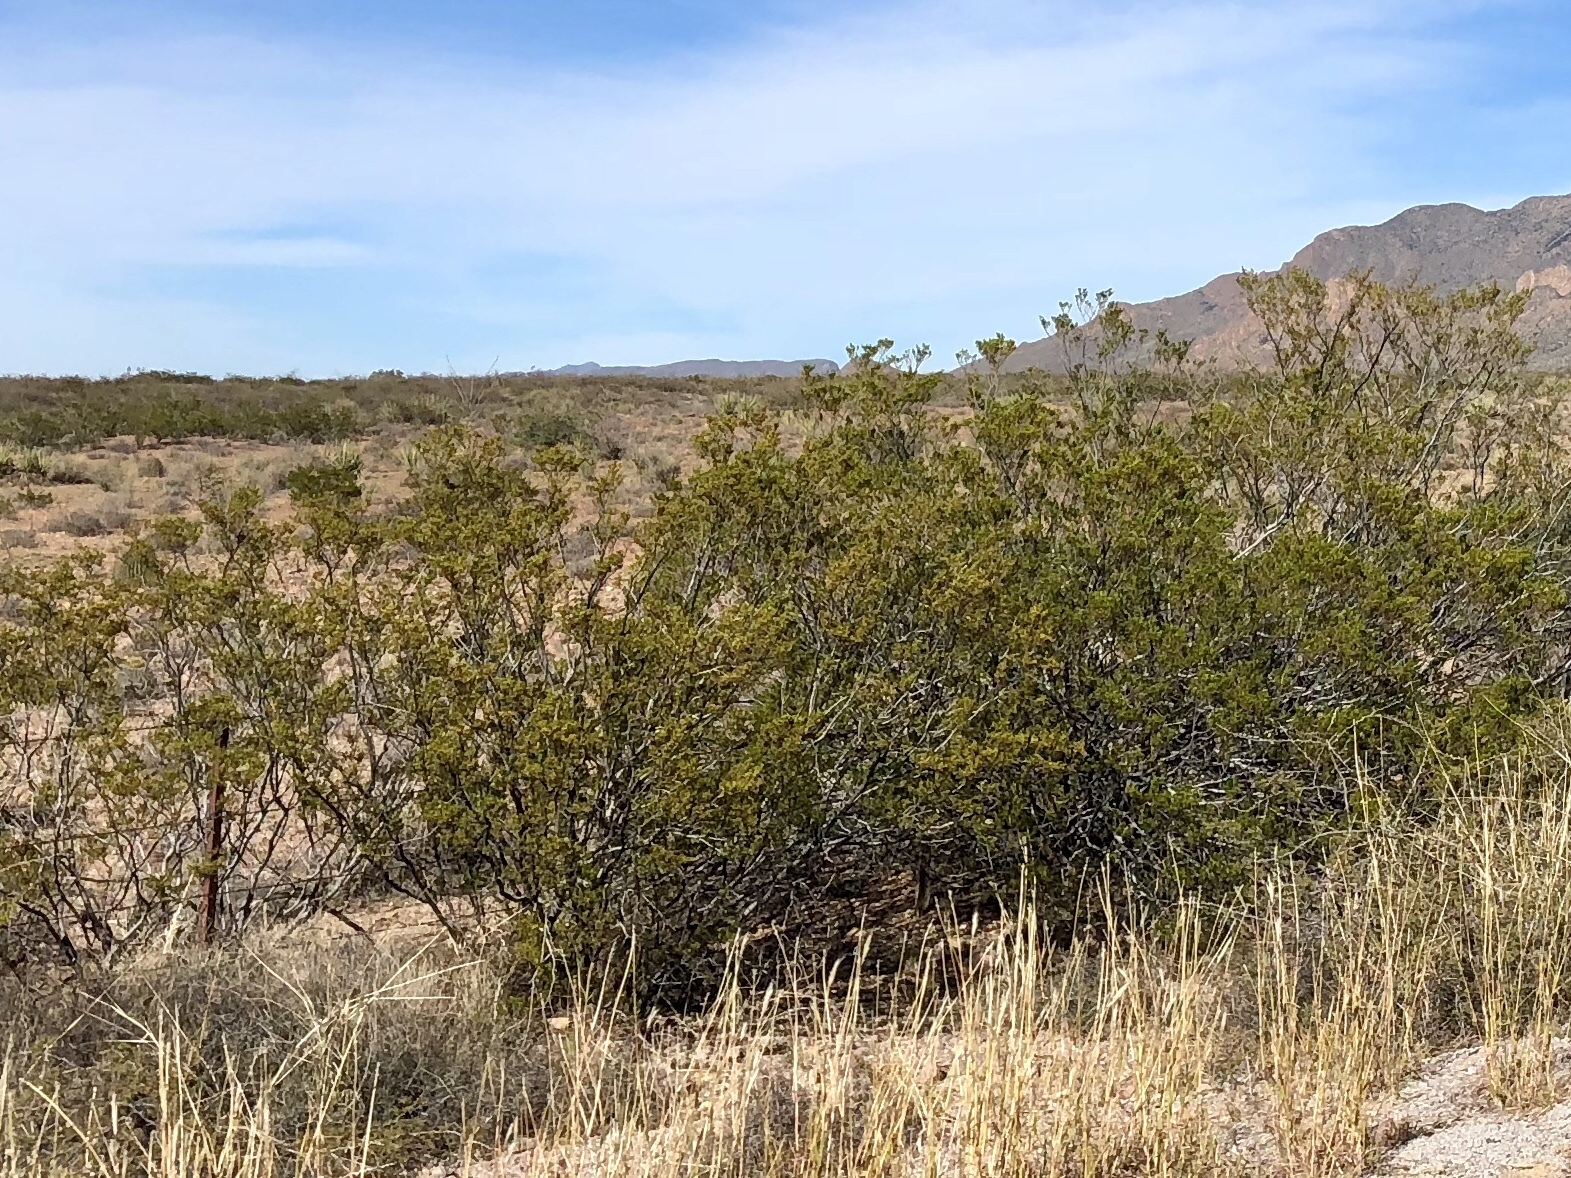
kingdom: Plantae
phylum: Tracheophyta
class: Magnoliopsida
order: Zygophyllales
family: Zygophyllaceae
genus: Larrea
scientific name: Larrea tridentata
